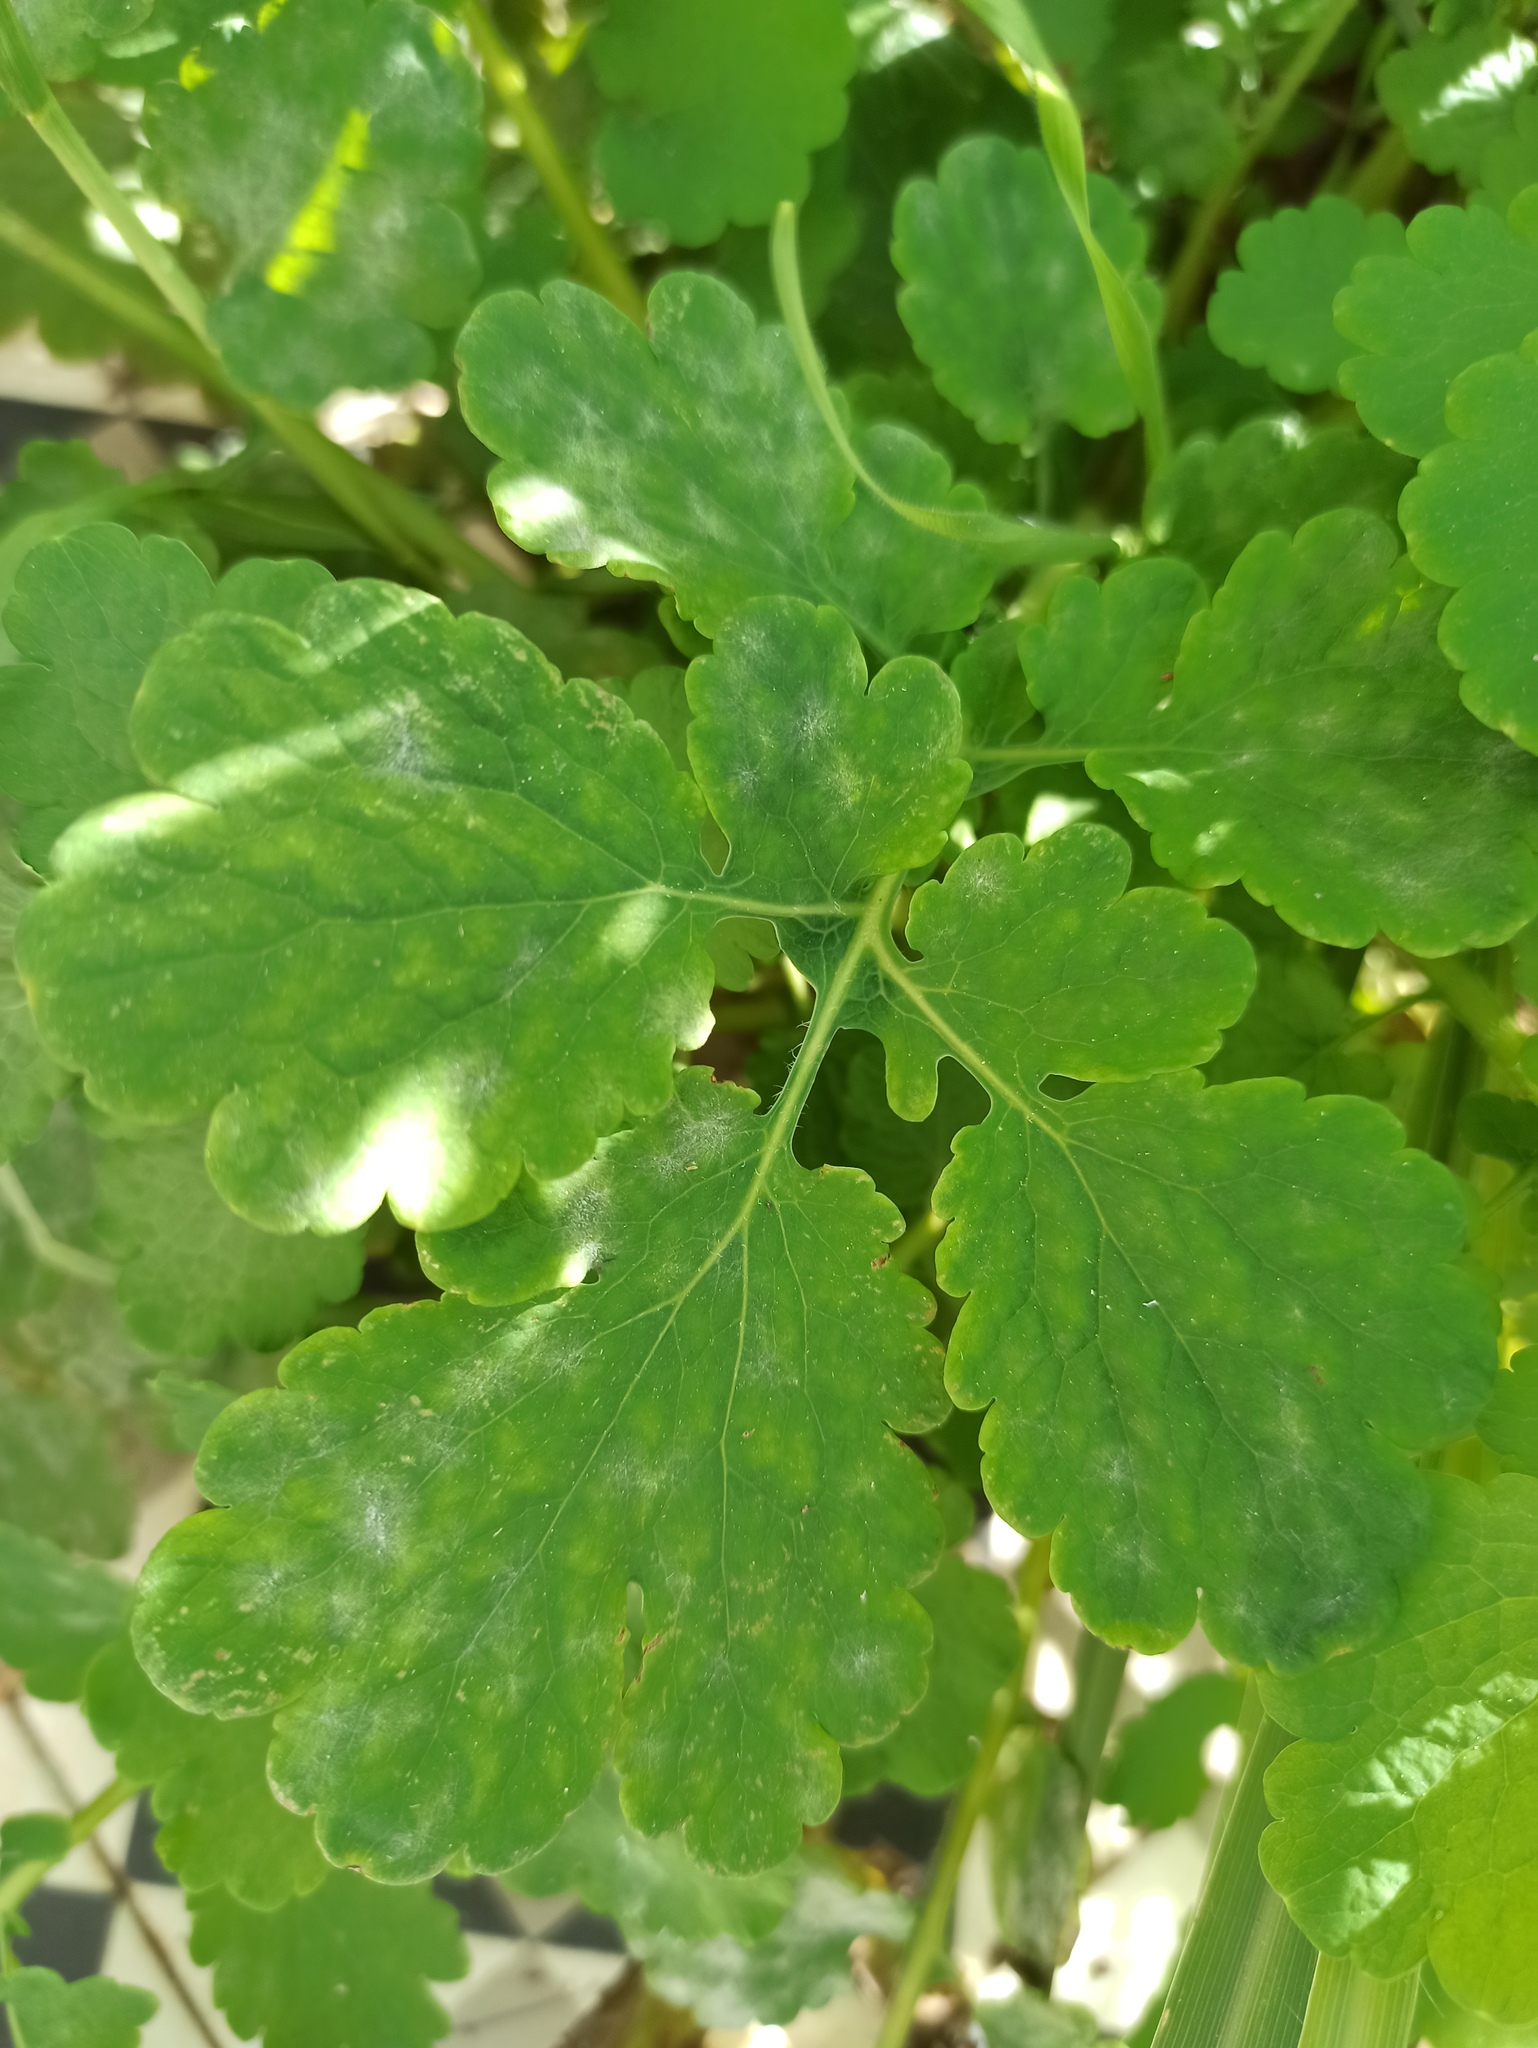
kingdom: Plantae
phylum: Tracheophyta
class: Magnoliopsida
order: Ranunculales
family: Papaveraceae
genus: Chelidonium
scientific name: Chelidonium majus
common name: Greater celandine
